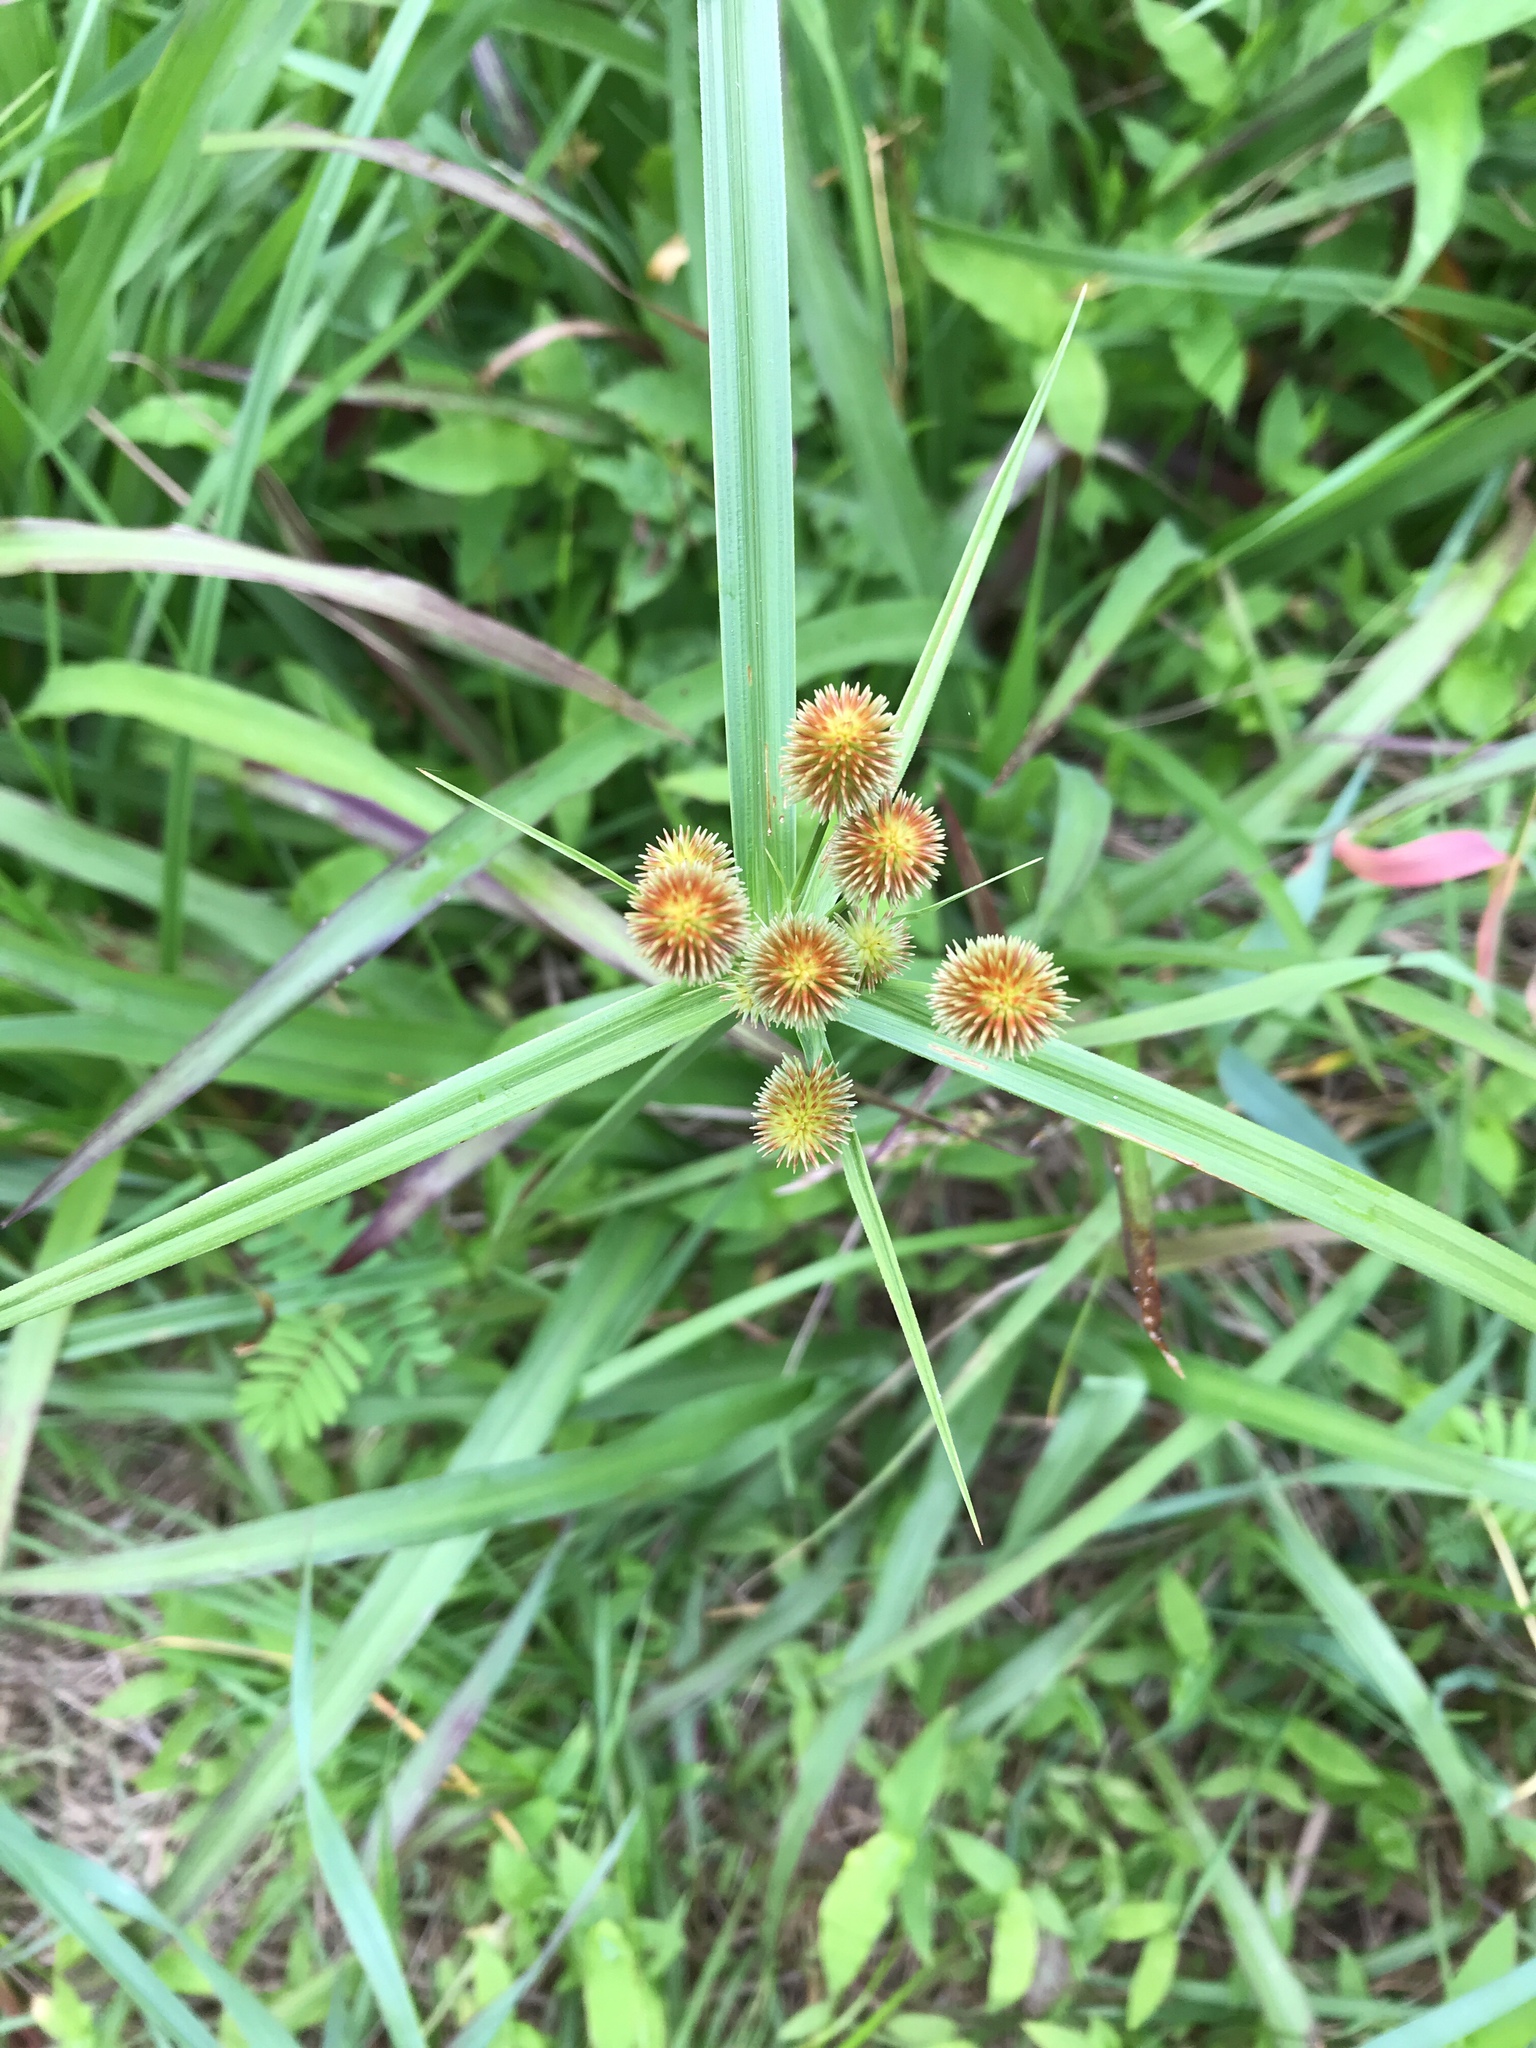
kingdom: Plantae
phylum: Tracheophyta
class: Liliopsida
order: Poales
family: Cyperaceae
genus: Cyperus
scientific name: Cyperus echinatus
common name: Teasel sedge
